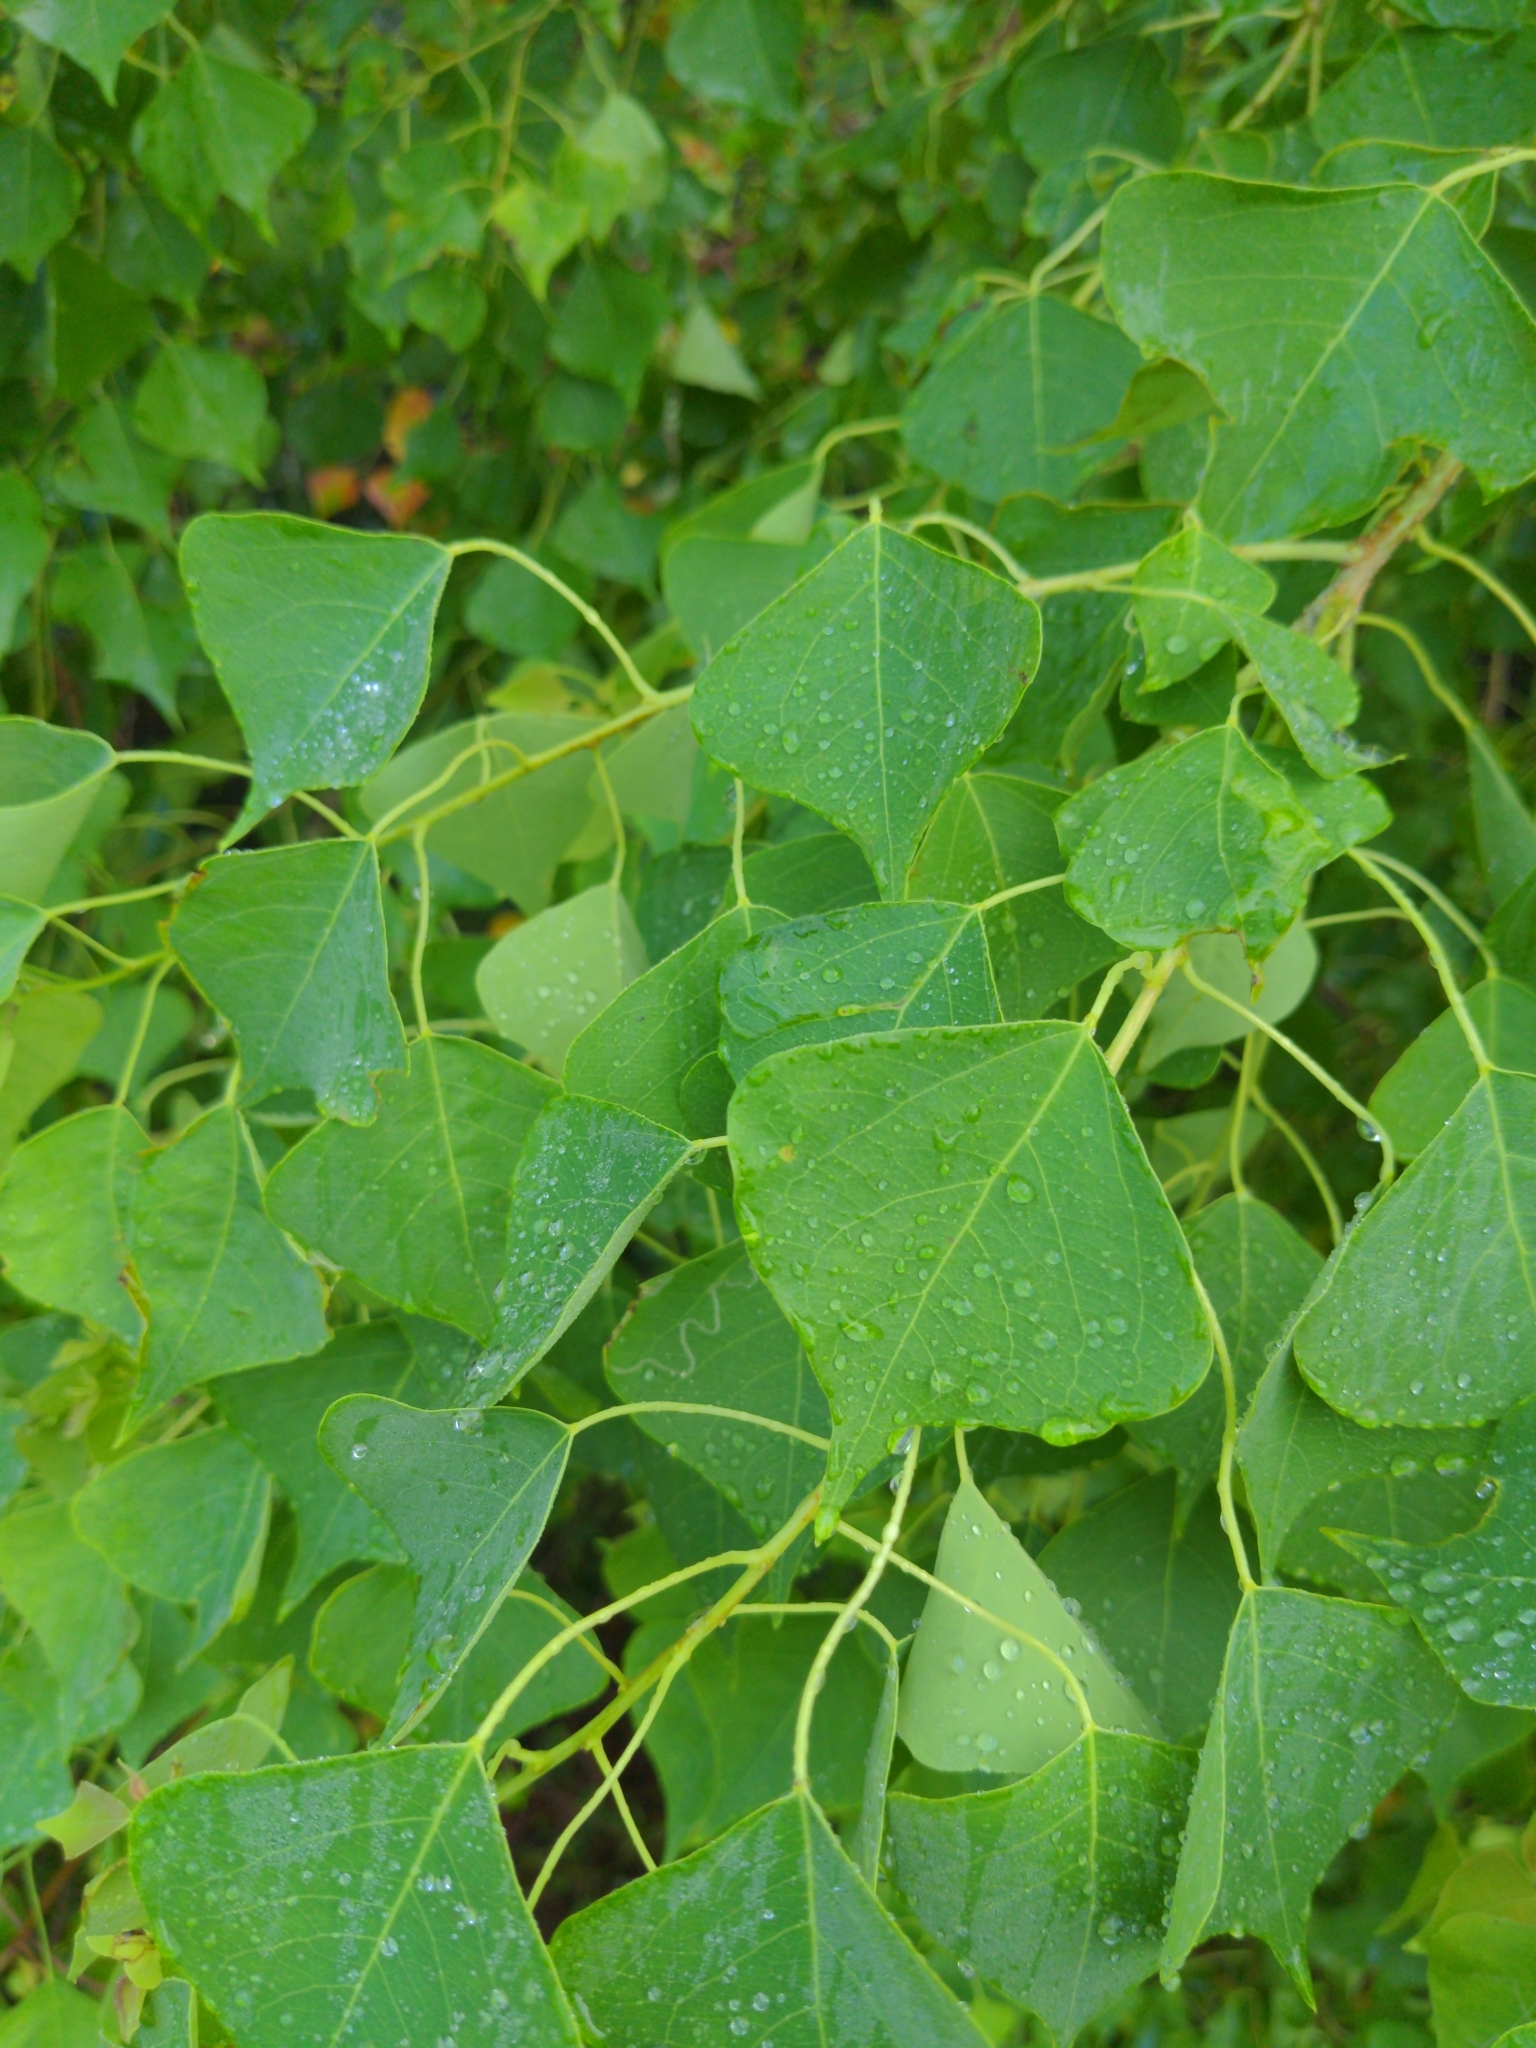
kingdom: Plantae
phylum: Tracheophyta
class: Magnoliopsida
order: Malpighiales
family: Euphorbiaceae
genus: Triadica
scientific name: Triadica sebifera
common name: Chinese tallow
